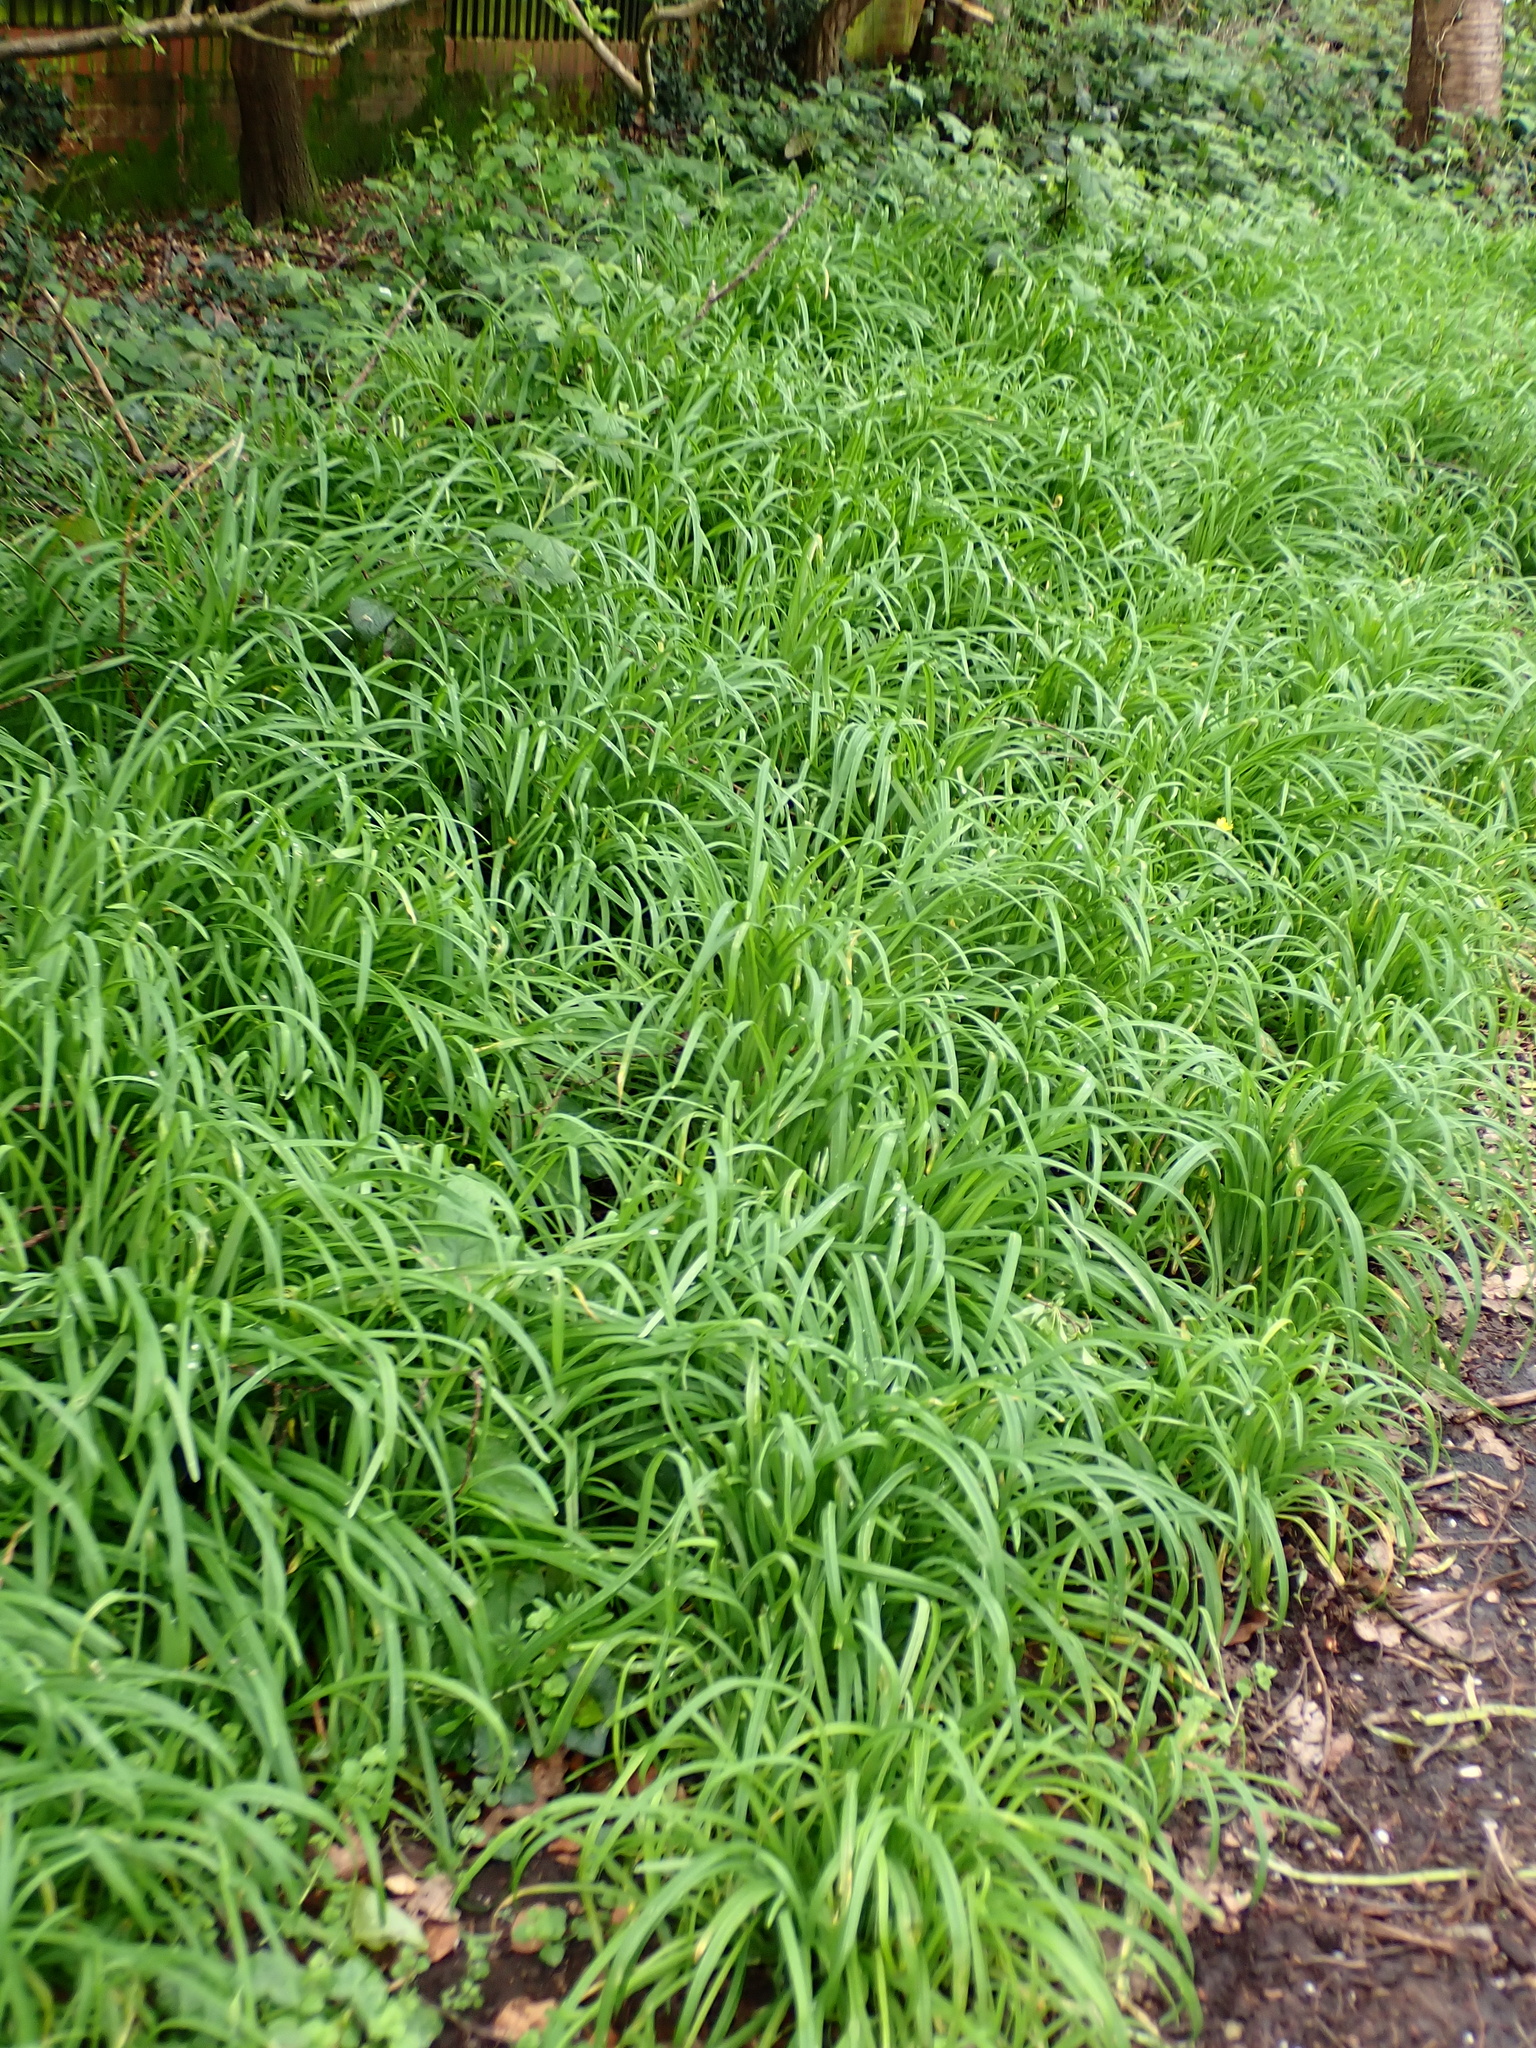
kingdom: Plantae
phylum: Tracheophyta
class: Liliopsida
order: Asparagales
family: Amaryllidaceae
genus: Allium
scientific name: Allium triquetrum
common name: Three-cornered garlic
